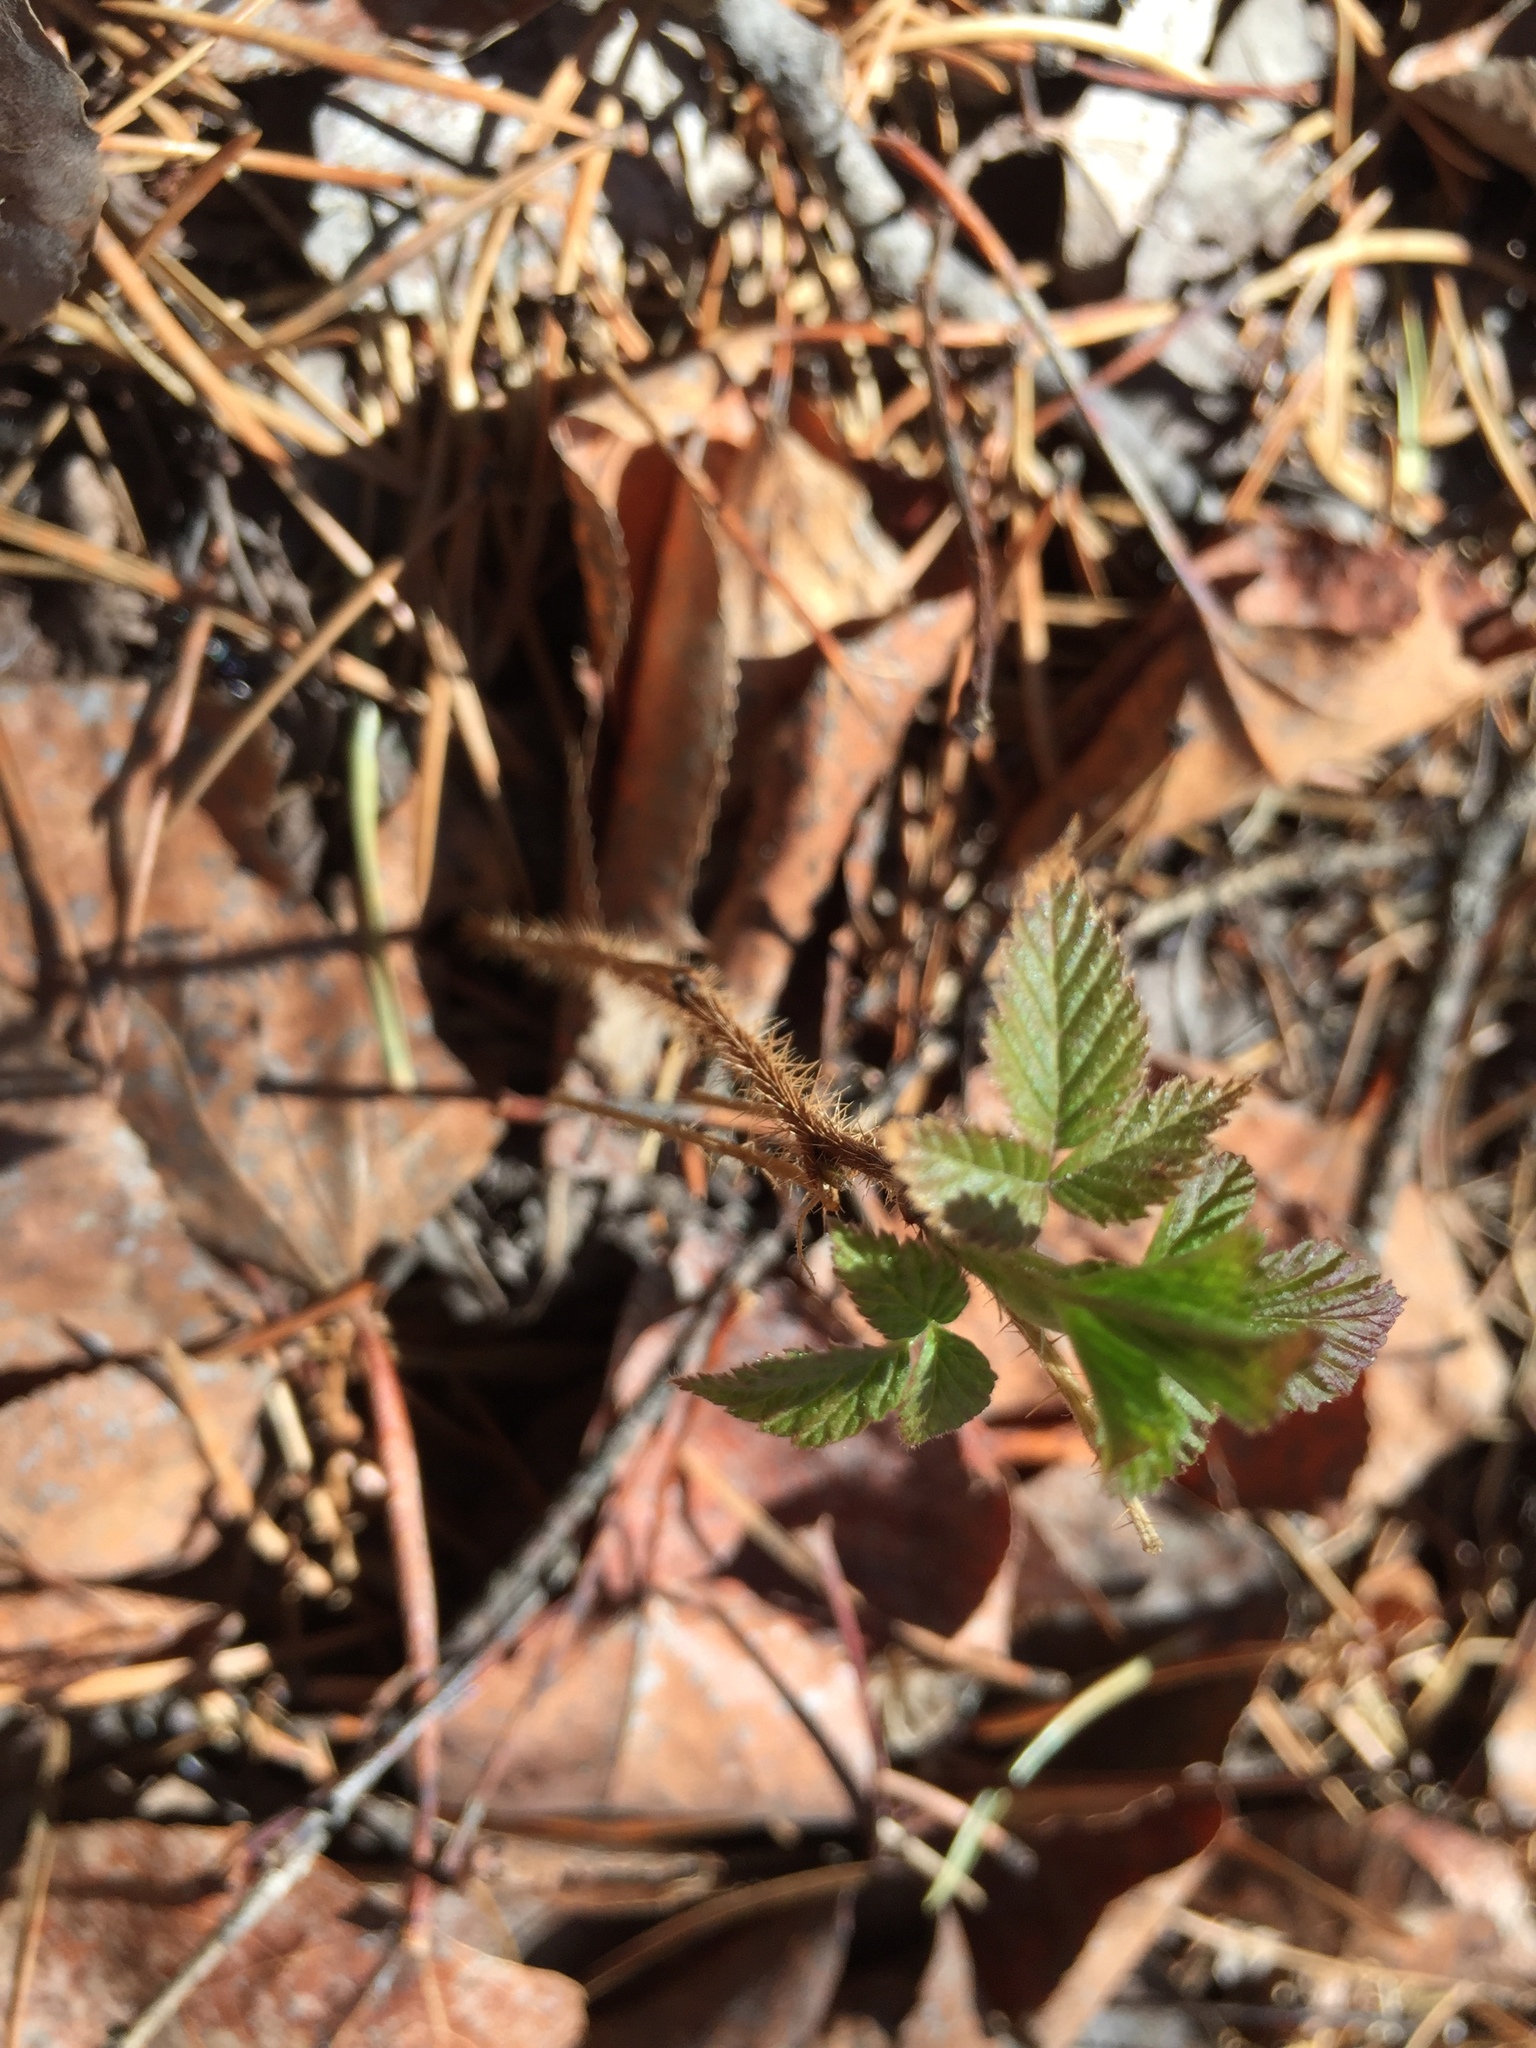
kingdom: Plantae
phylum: Tracheophyta
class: Magnoliopsida
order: Rosales
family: Rosaceae
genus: Rubus
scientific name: Rubus idaeus
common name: Raspberry
